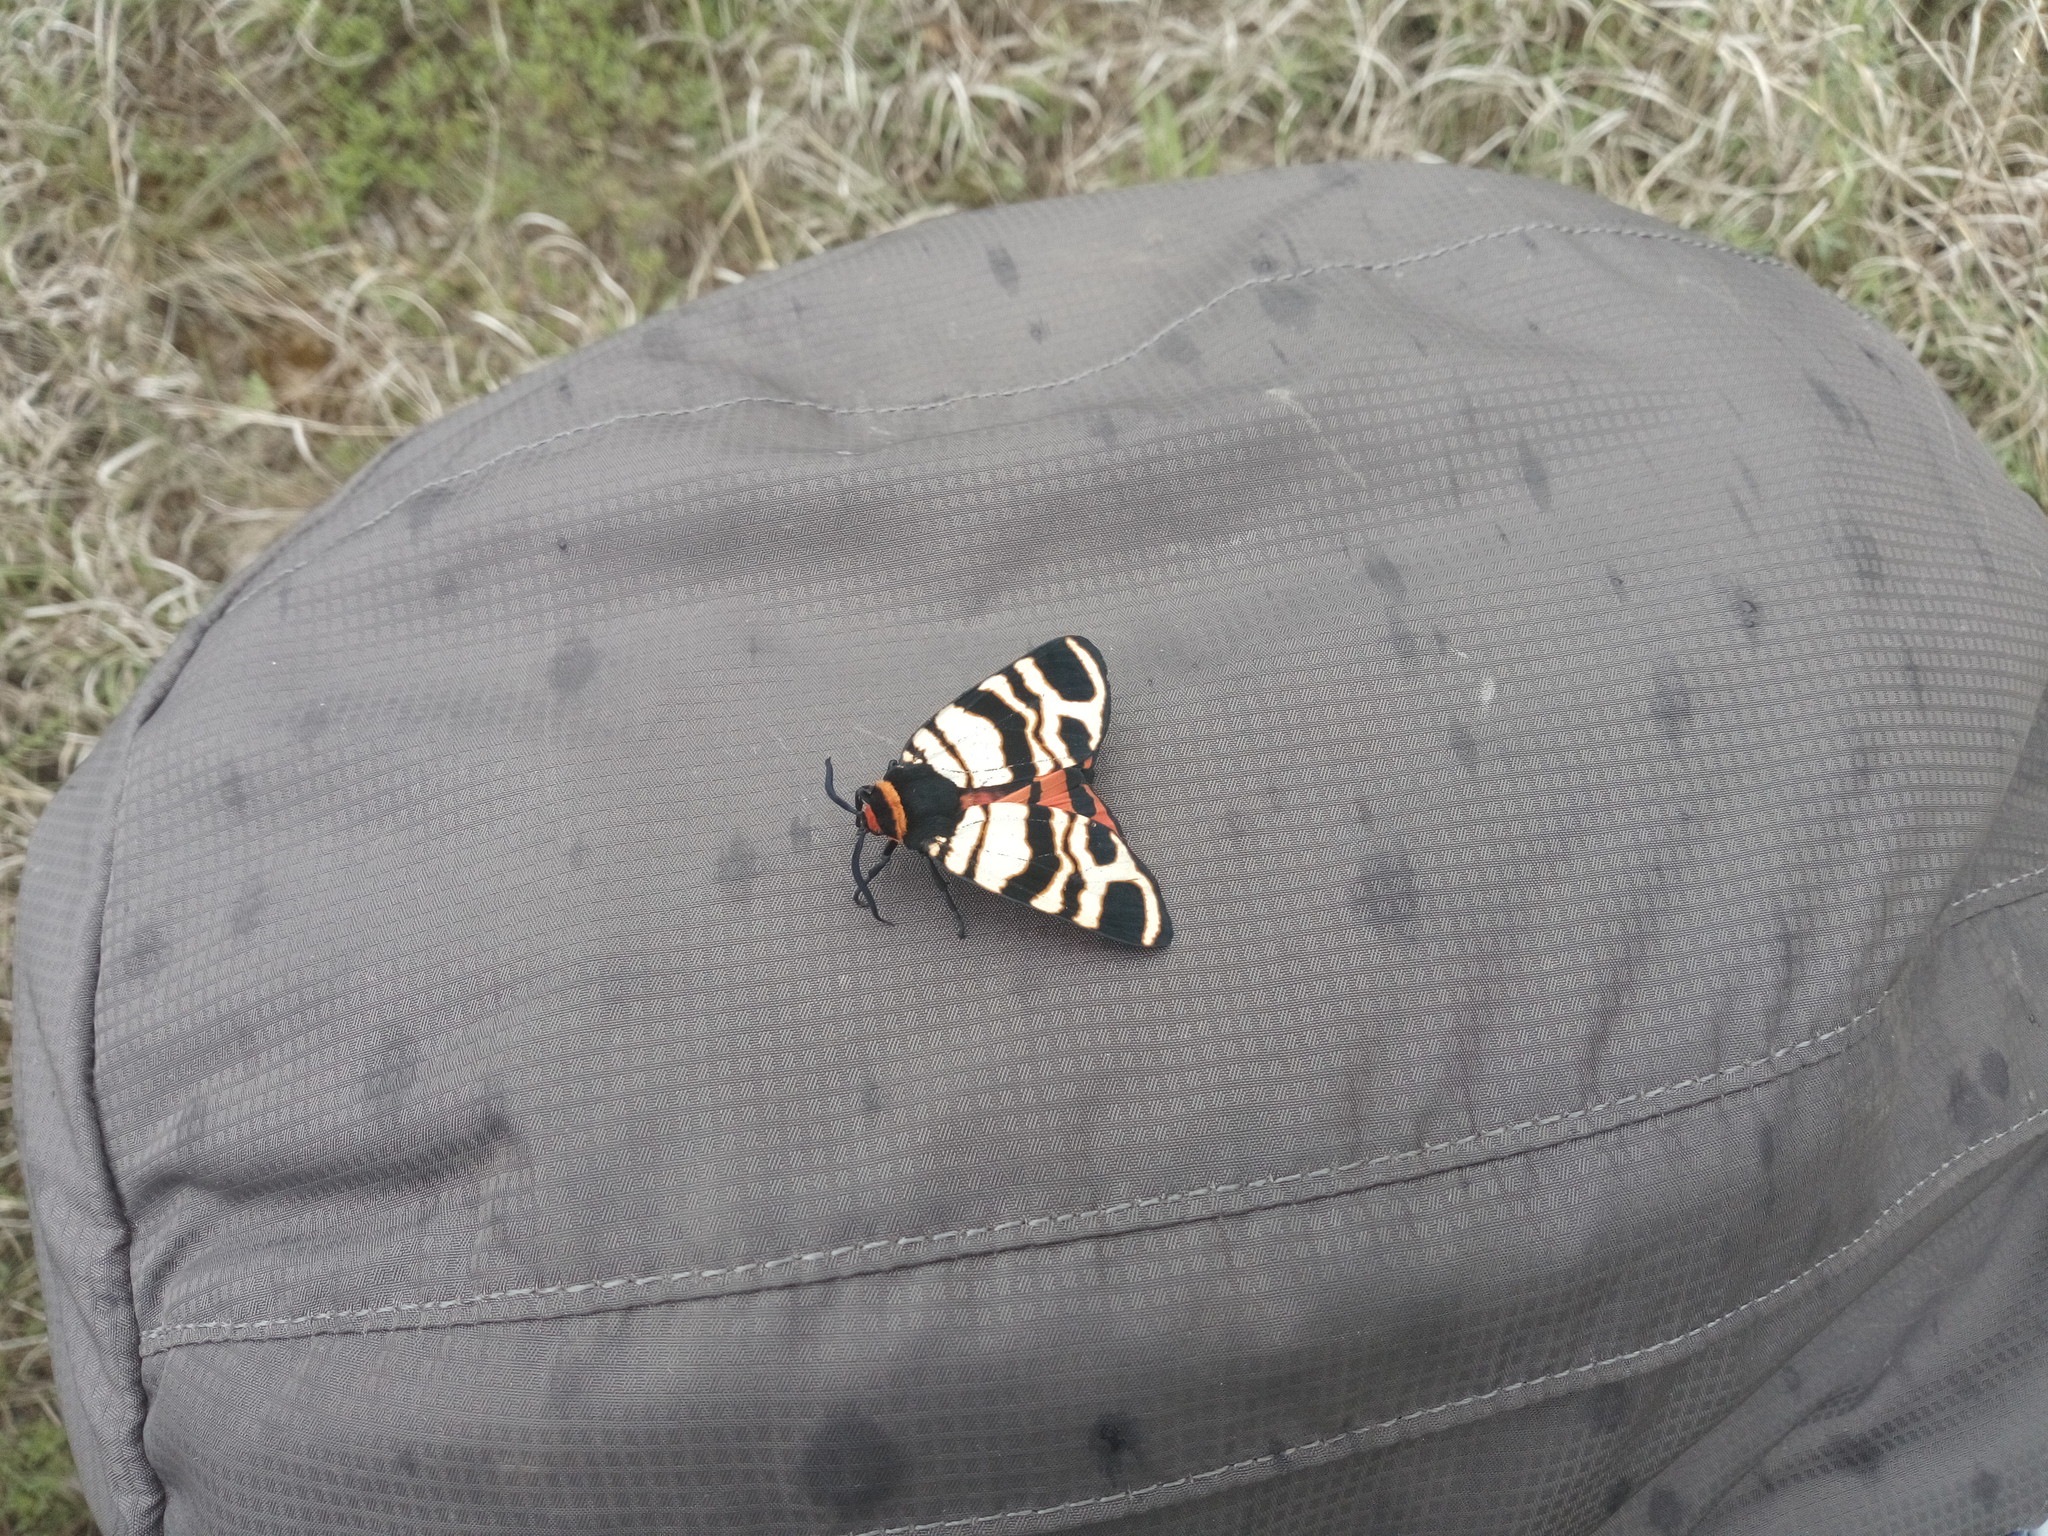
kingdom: Animalia
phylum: Arthropoda
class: Insecta
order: Lepidoptera
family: Erebidae
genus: Eucharia
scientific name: Eucharia festiva
